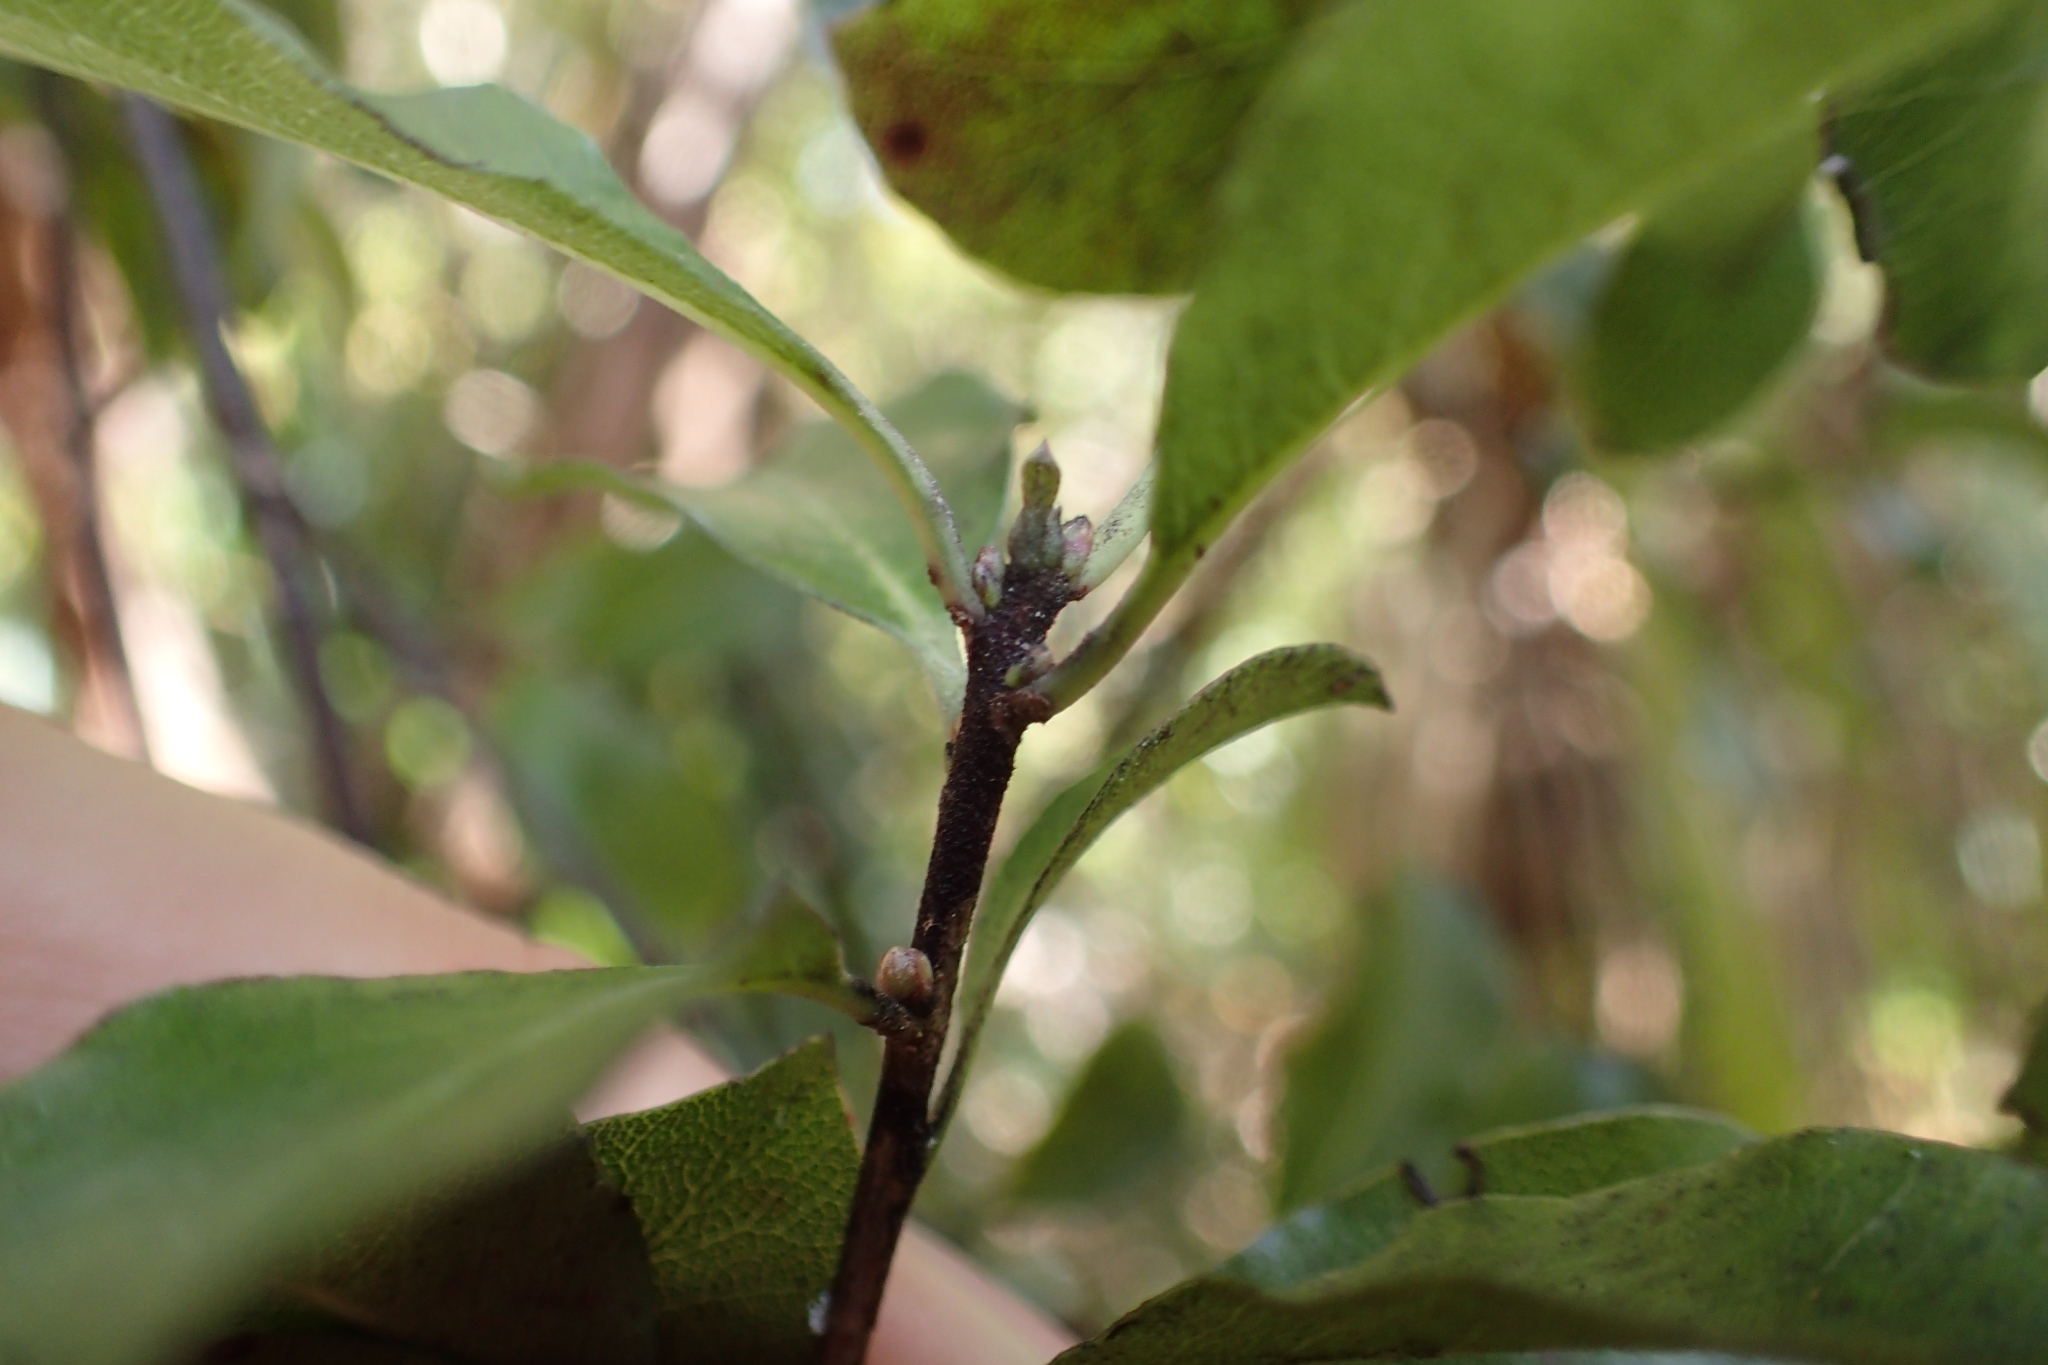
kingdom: Plantae
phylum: Tracheophyta
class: Magnoliopsida
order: Apiales
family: Pittosporaceae
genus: Pittosporum
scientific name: Pittosporum tenuifolium
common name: Kohuhu
